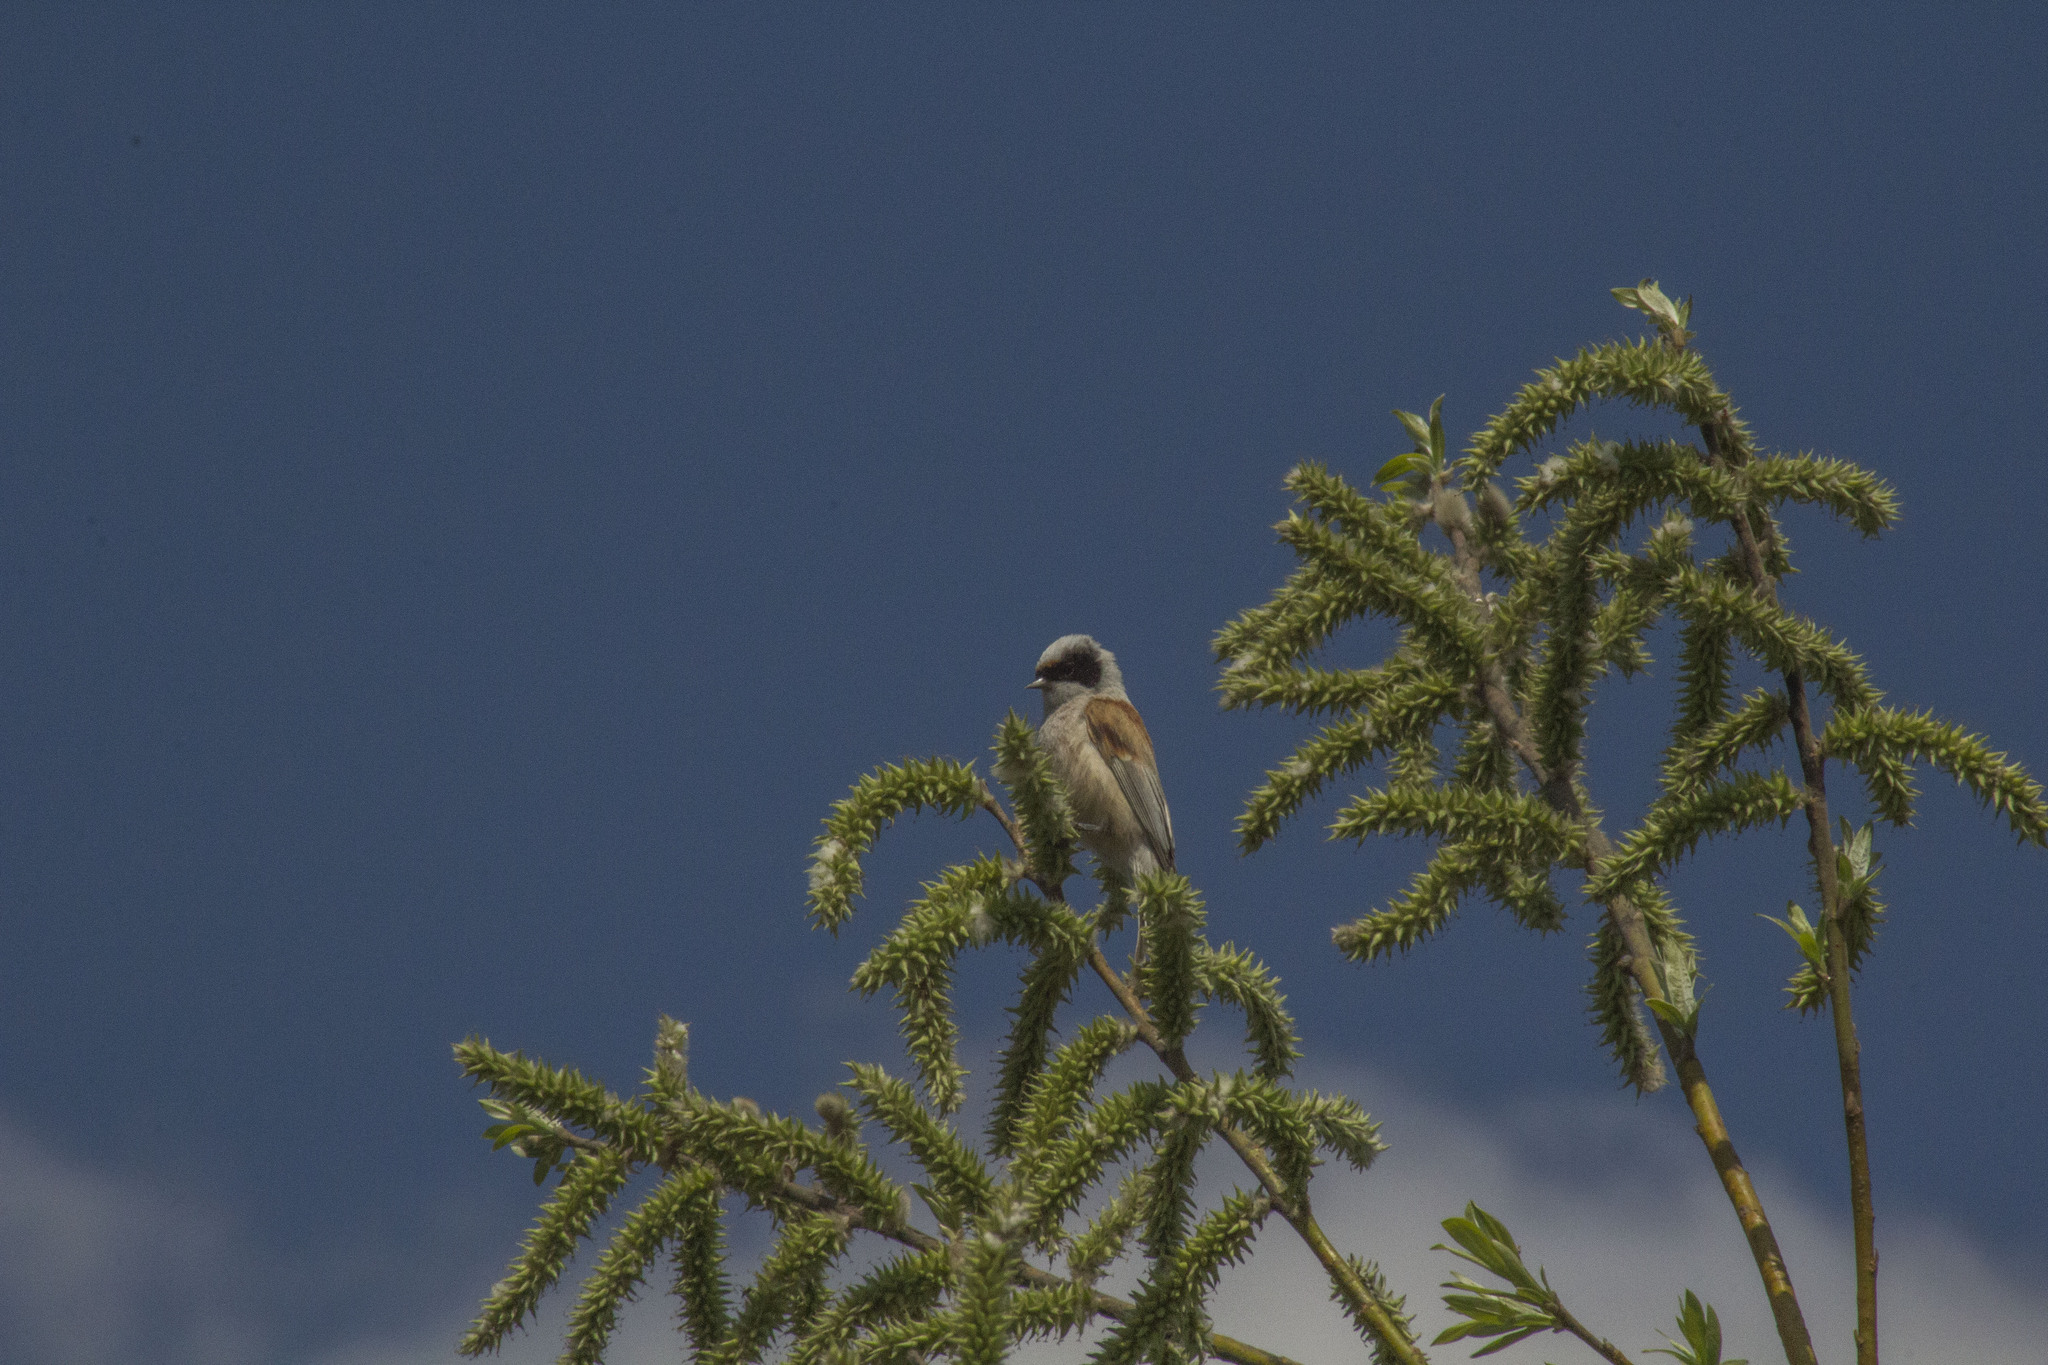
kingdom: Animalia
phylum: Chordata
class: Aves
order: Passeriformes
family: Remizidae
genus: Remiz
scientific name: Remiz pendulinus
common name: Eurasian penduline tit
